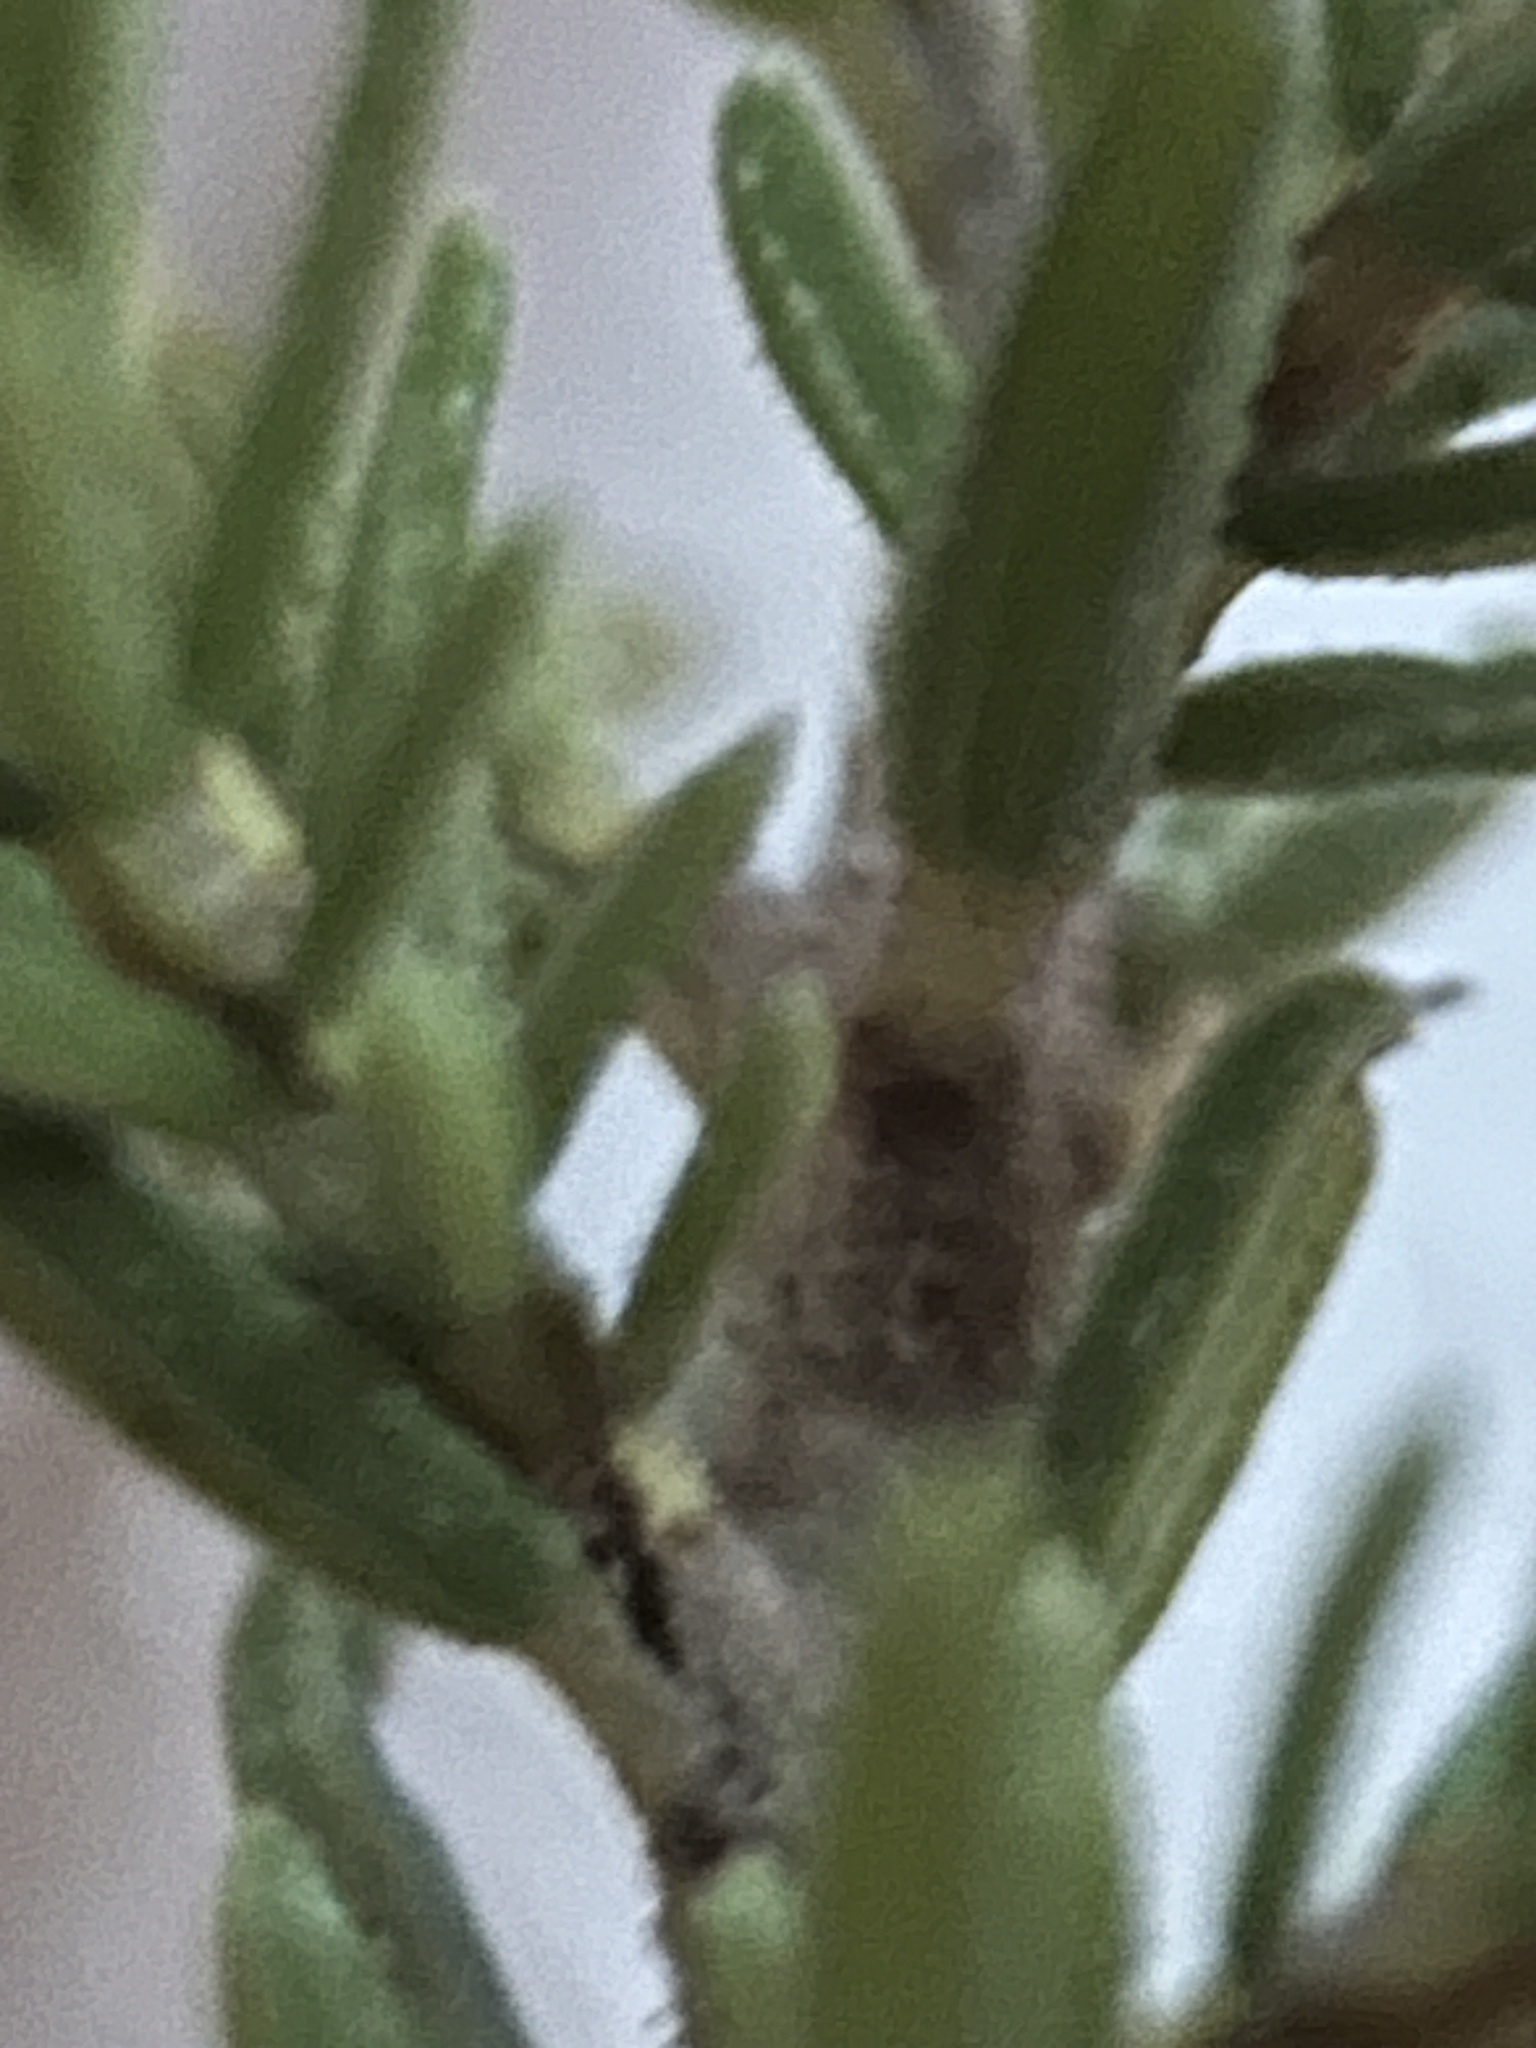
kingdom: Plantae
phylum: Tracheophyta
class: Magnoliopsida
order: Ericales
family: Ericaceae
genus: Erica
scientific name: Erica discolor
